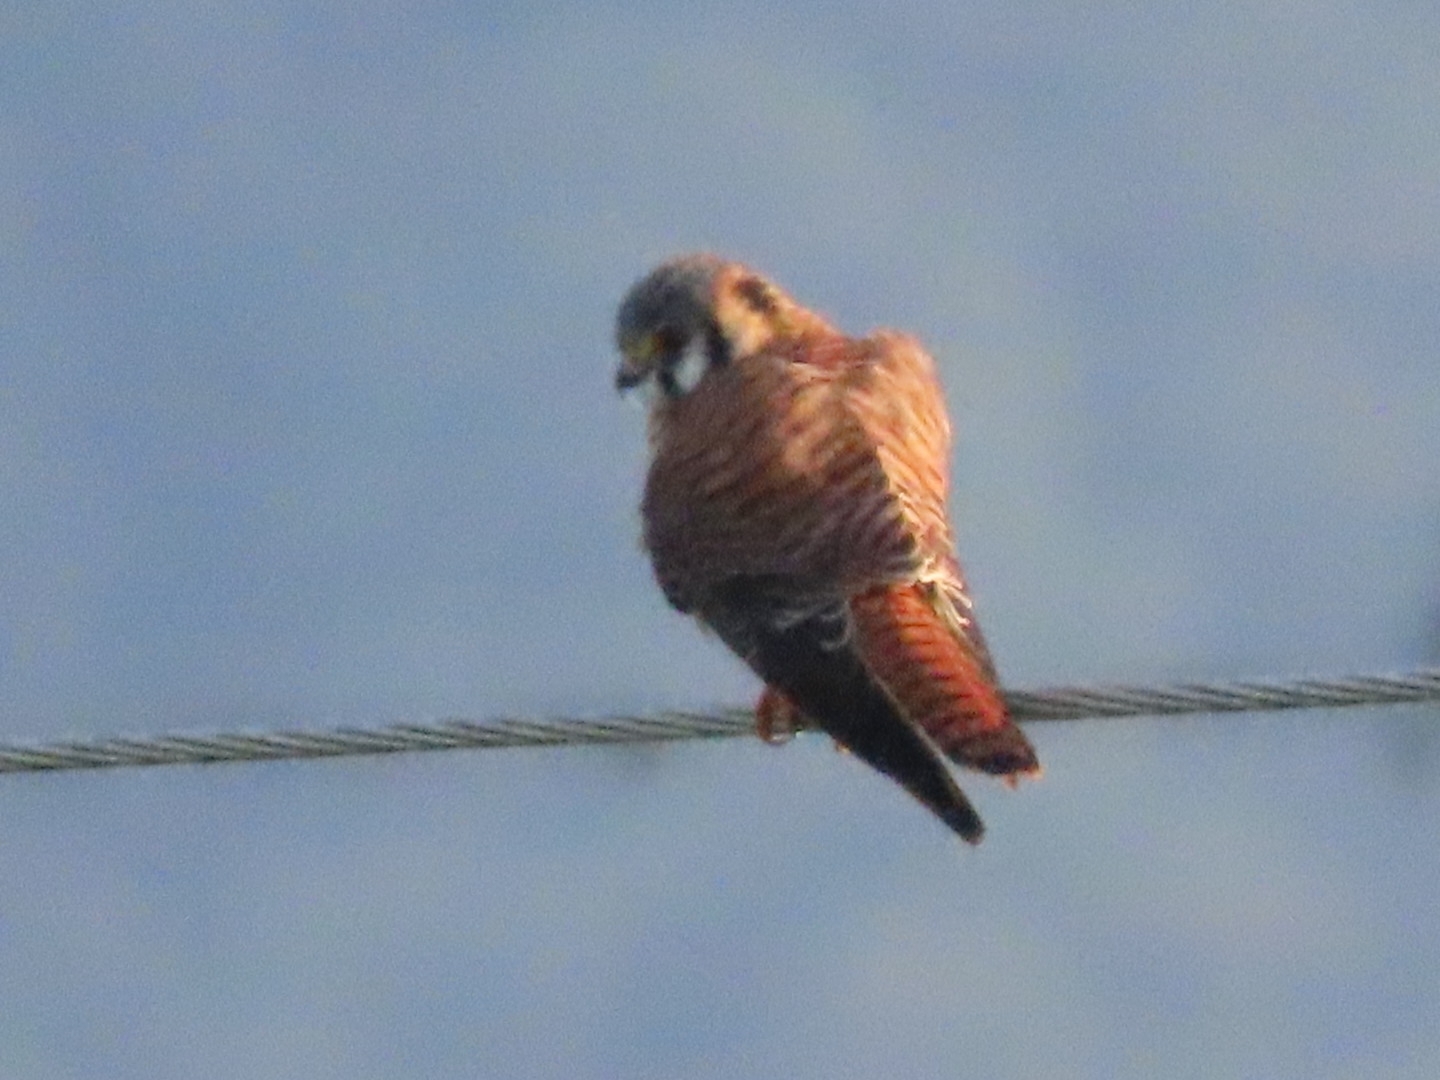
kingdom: Animalia
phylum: Chordata
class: Aves
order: Falconiformes
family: Falconidae
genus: Falco
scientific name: Falco sparverius
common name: American kestrel
